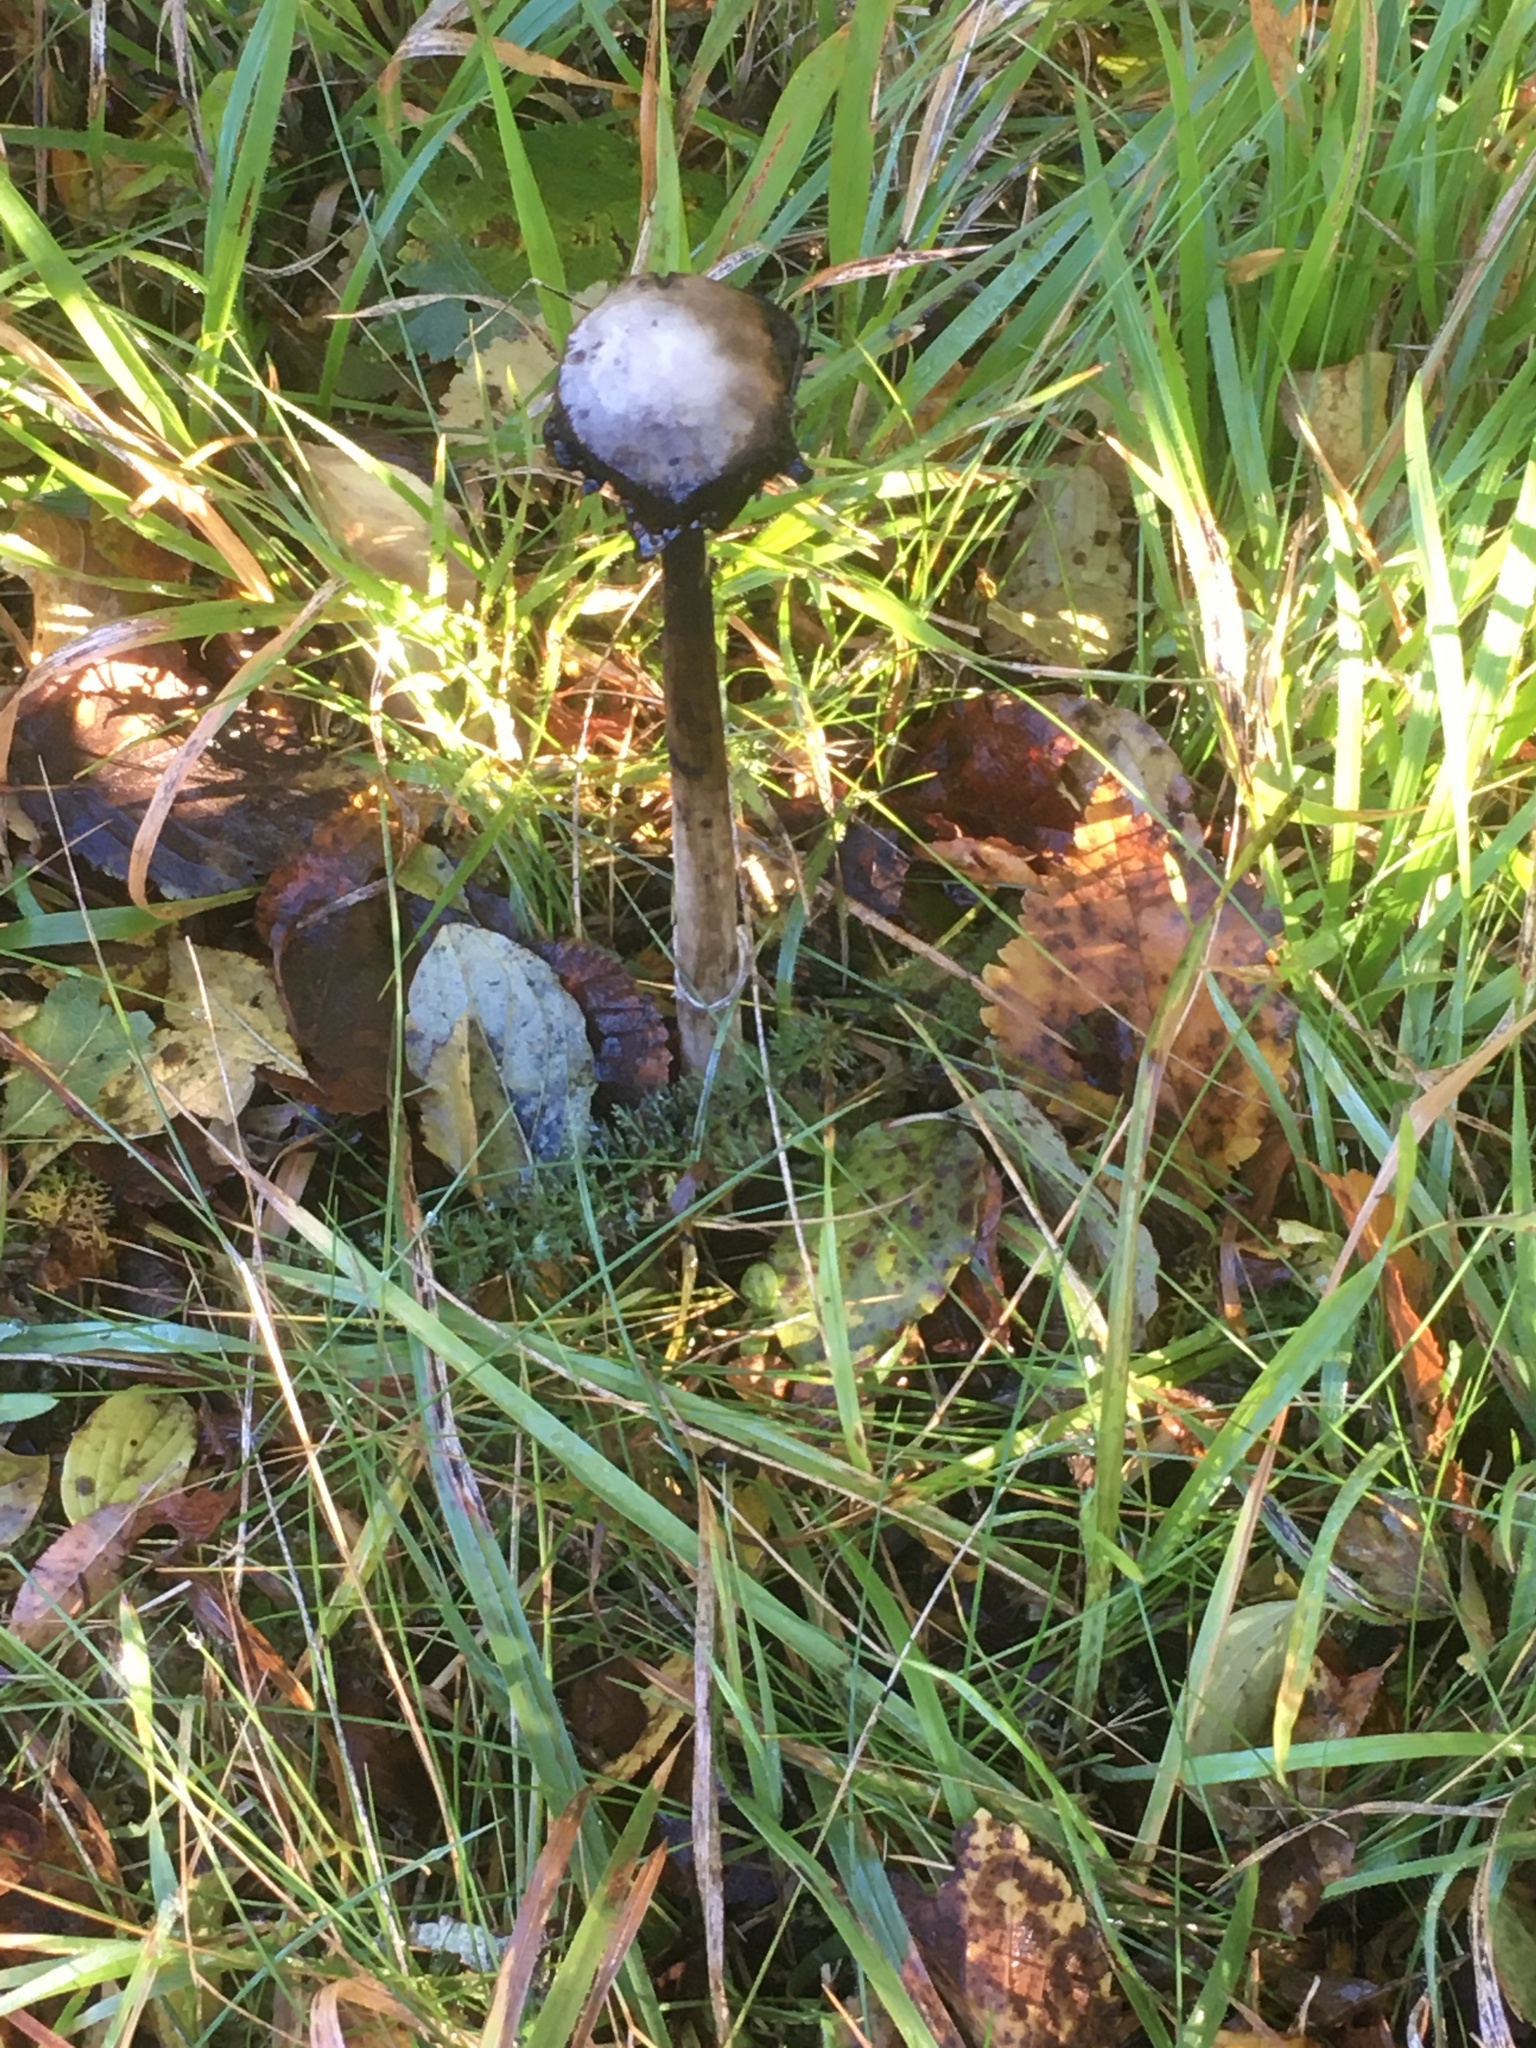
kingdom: Fungi
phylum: Basidiomycota
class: Agaricomycetes
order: Agaricales
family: Agaricaceae
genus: Coprinus
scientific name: Coprinus comatus
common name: Lawyer's wig
